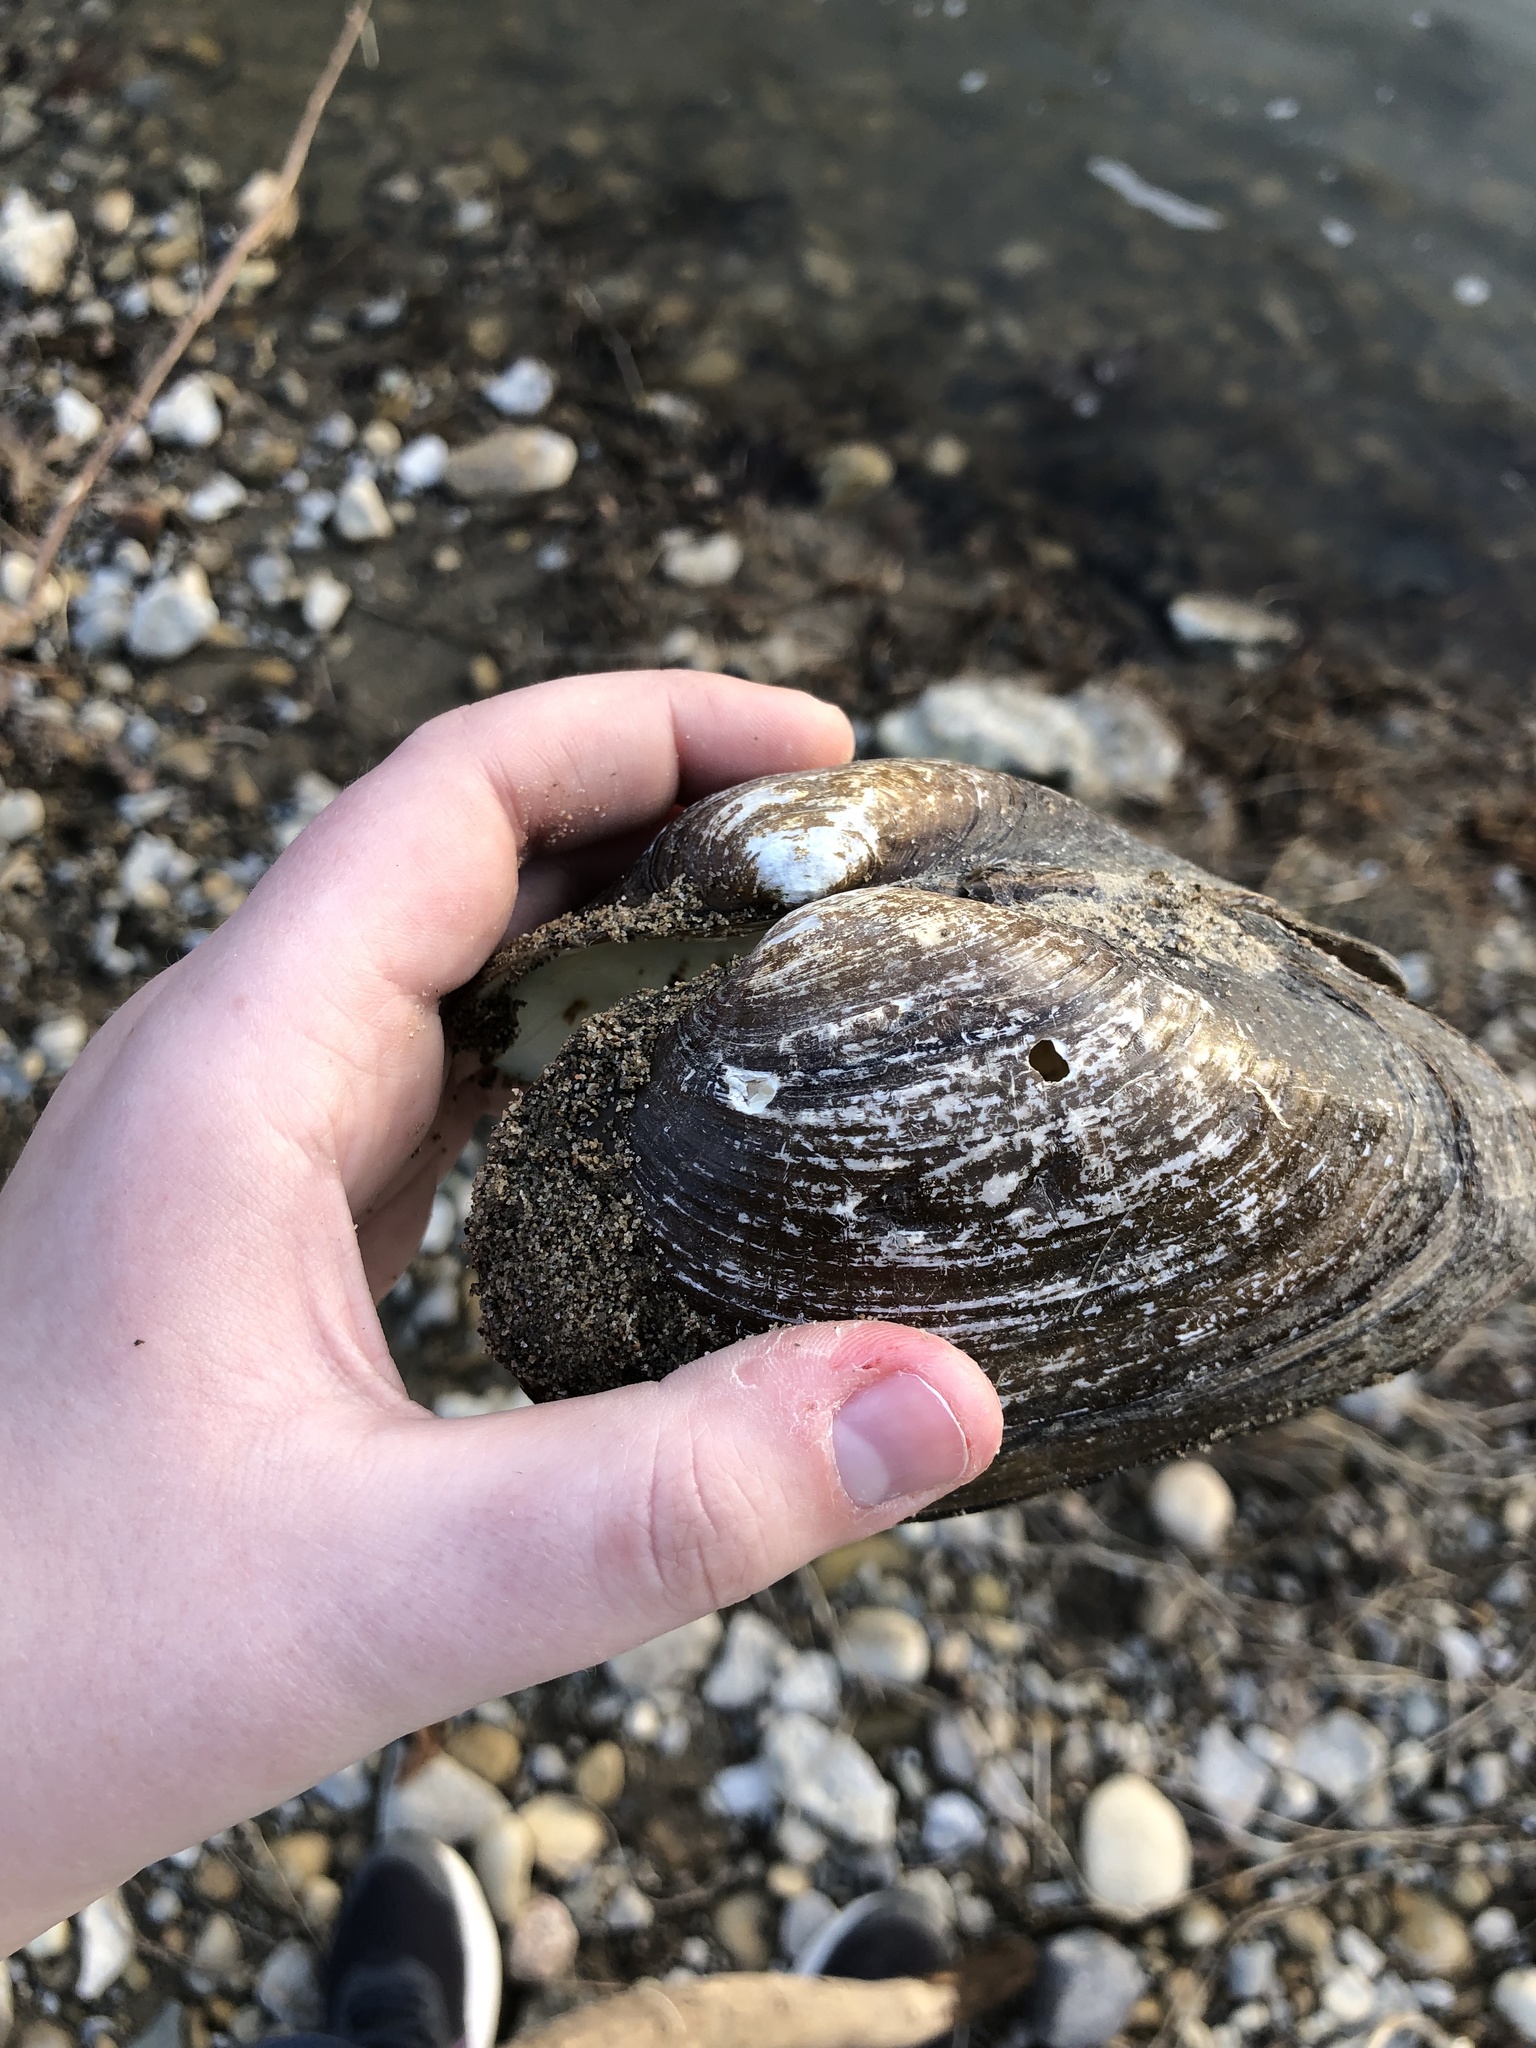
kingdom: Animalia
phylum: Mollusca
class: Bivalvia
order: Unionida
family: Unionidae
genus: Pyganodon
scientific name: Pyganodon grandis
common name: Giant floater
